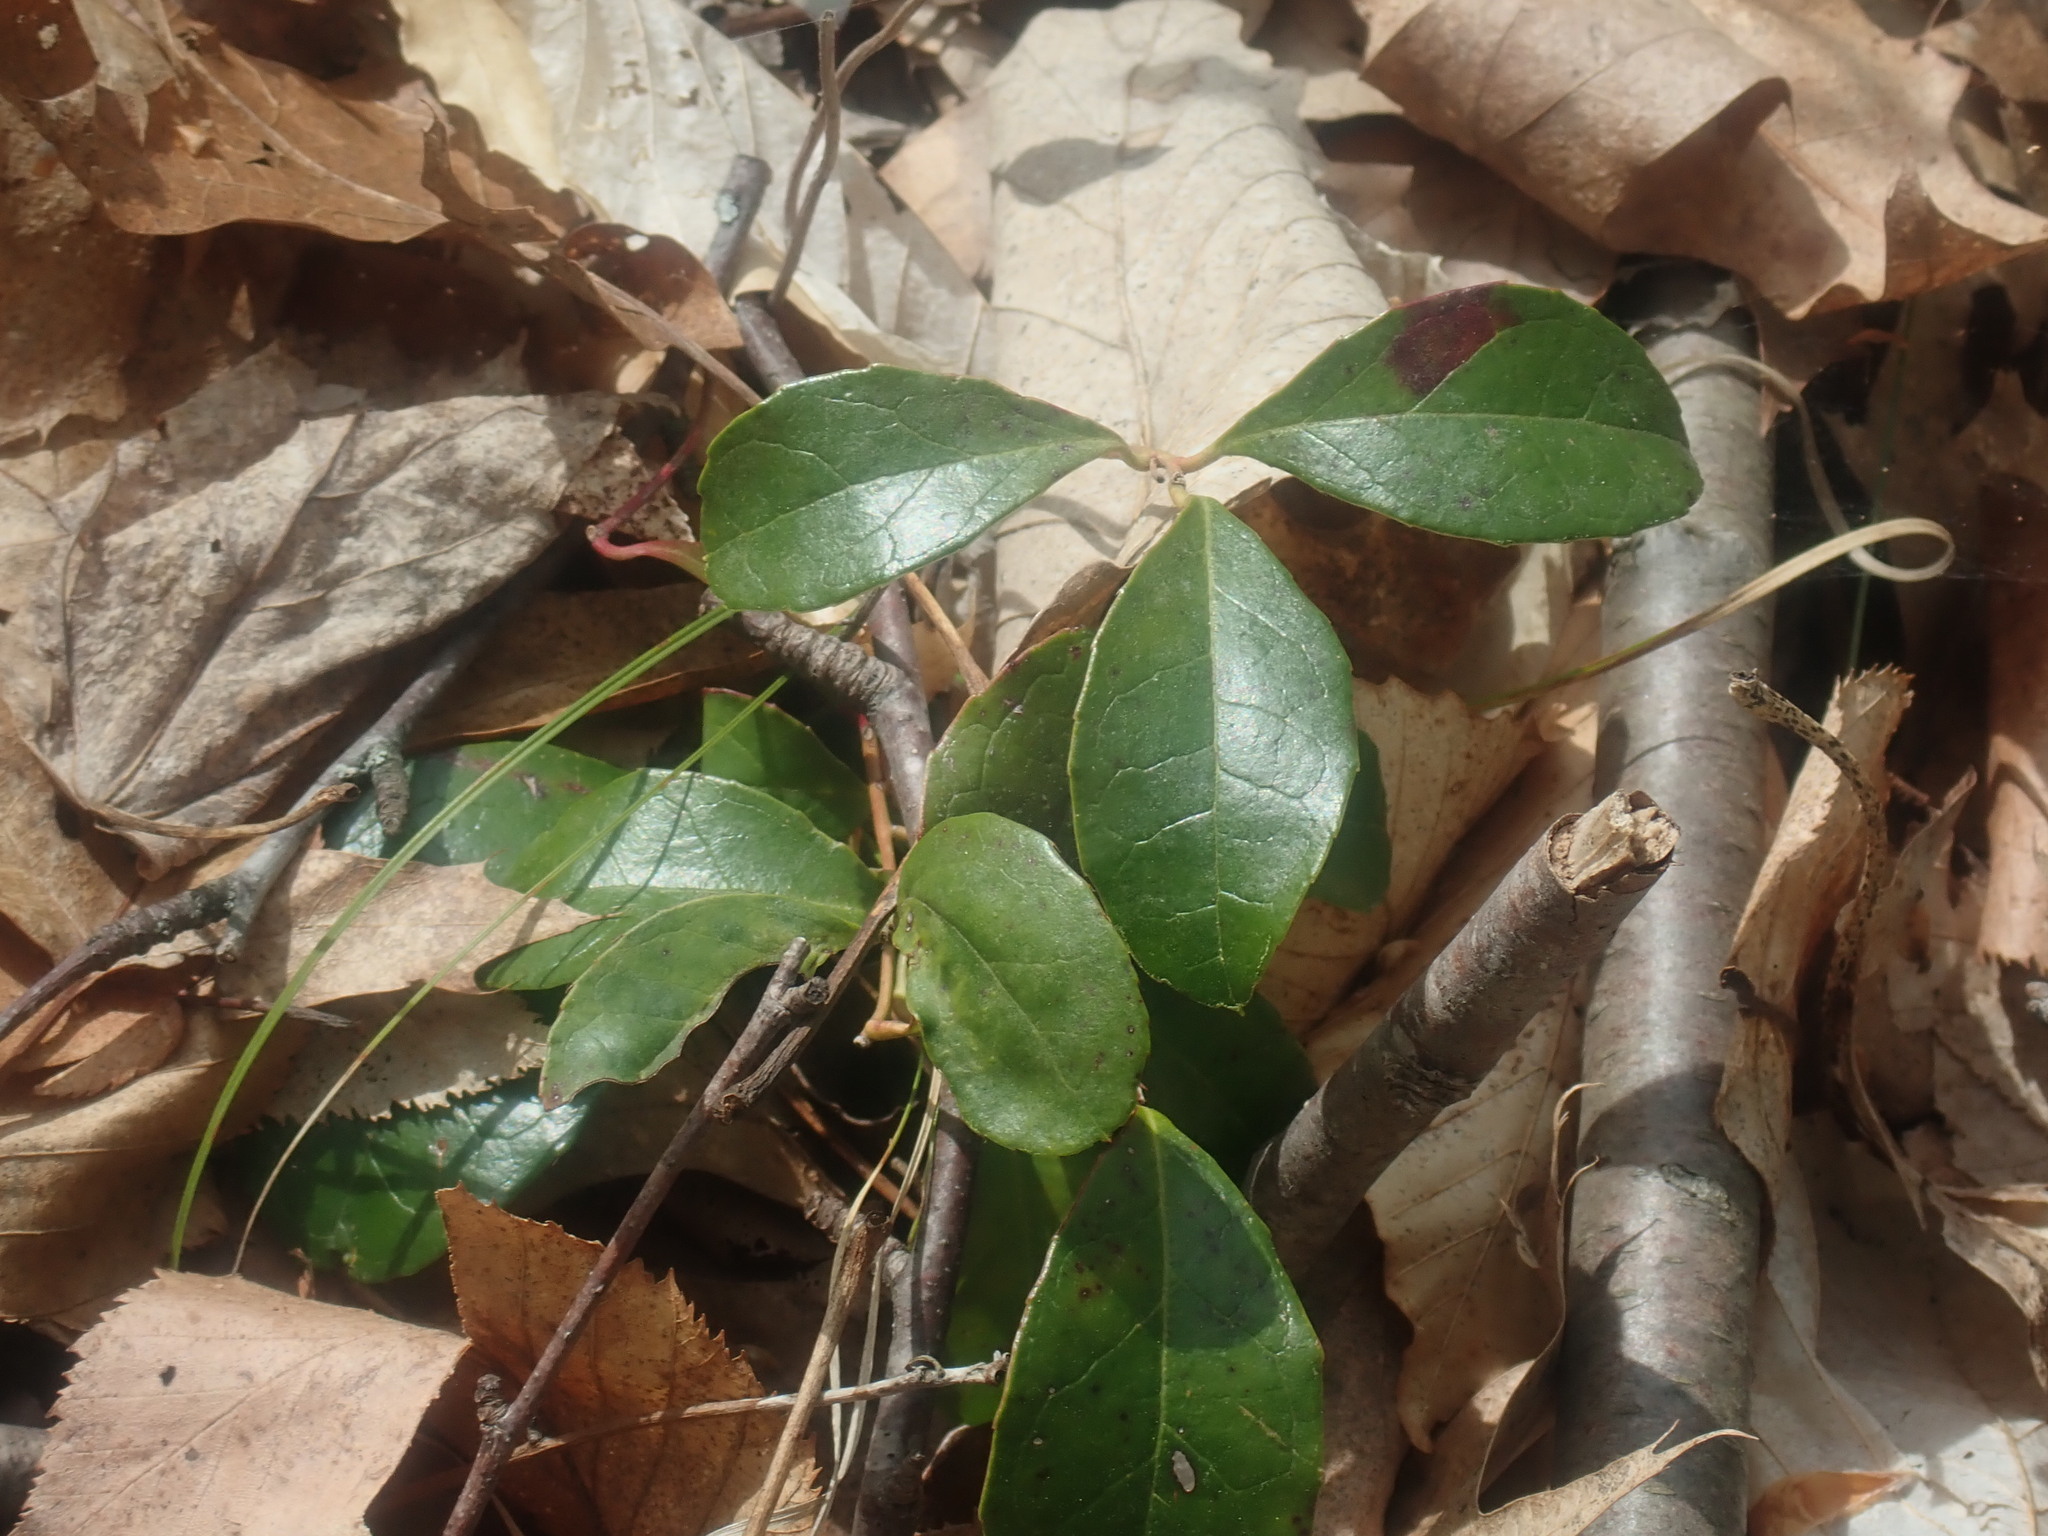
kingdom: Plantae
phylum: Tracheophyta
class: Magnoliopsida
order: Ericales
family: Ericaceae
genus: Gaultheria
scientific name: Gaultheria procumbens
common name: Checkerberry
